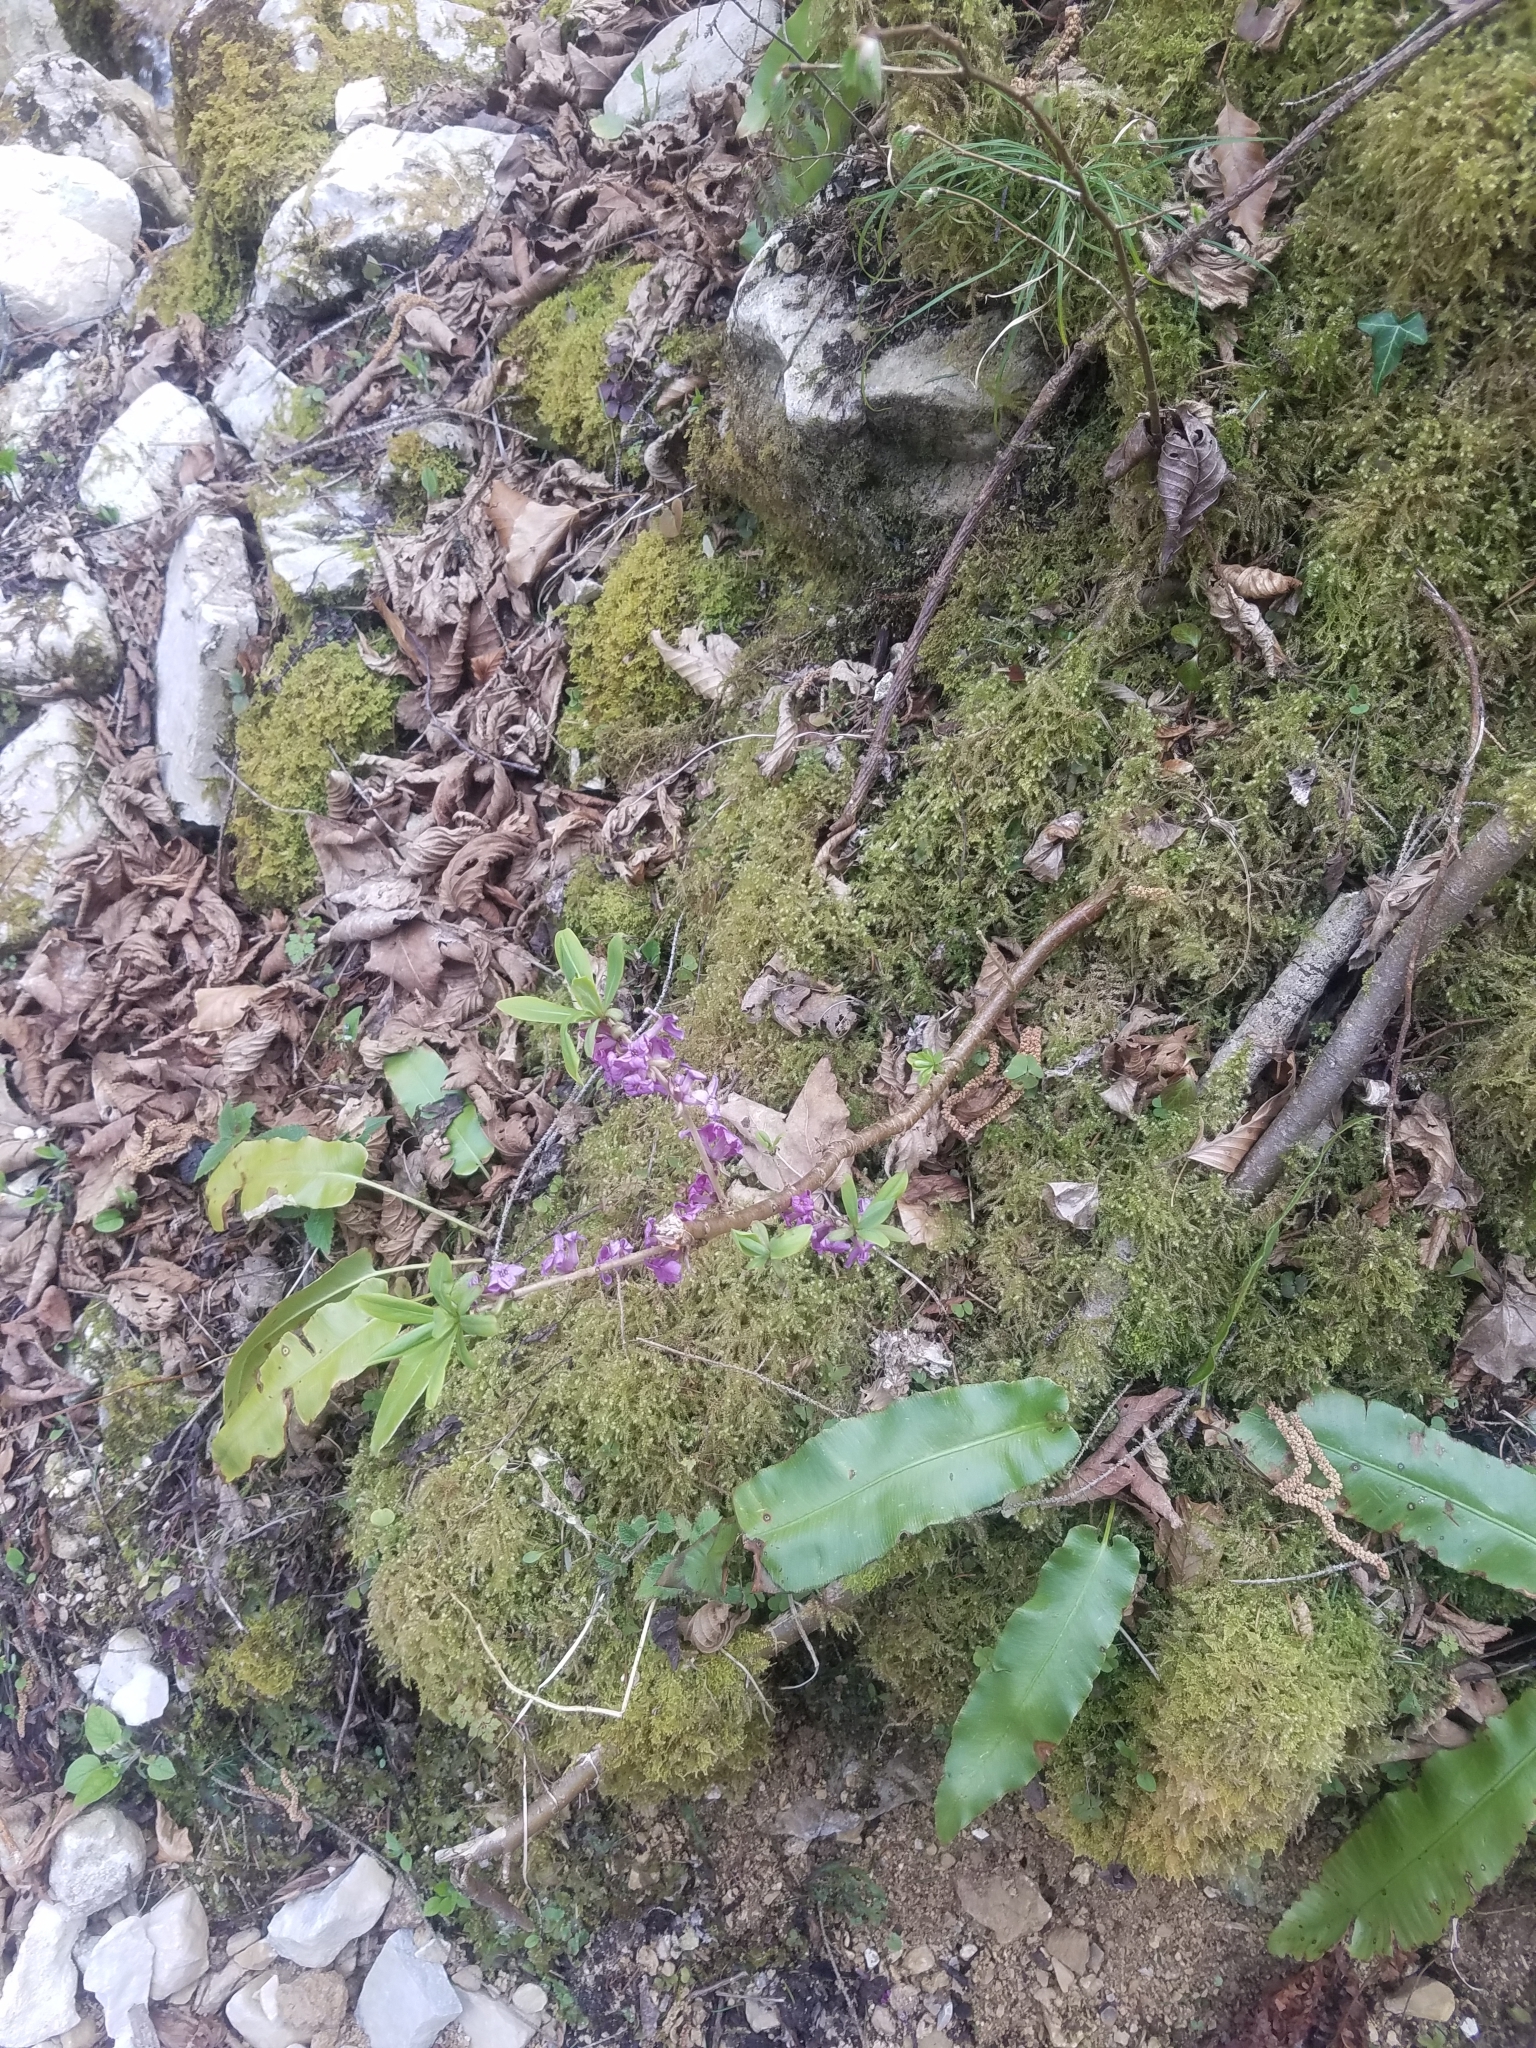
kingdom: Plantae
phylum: Tracheophyta
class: Magnoliopsida
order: Malvales
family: Thymelaeaceae
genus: Daphne
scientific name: Daphne mezereum
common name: Mezereon
